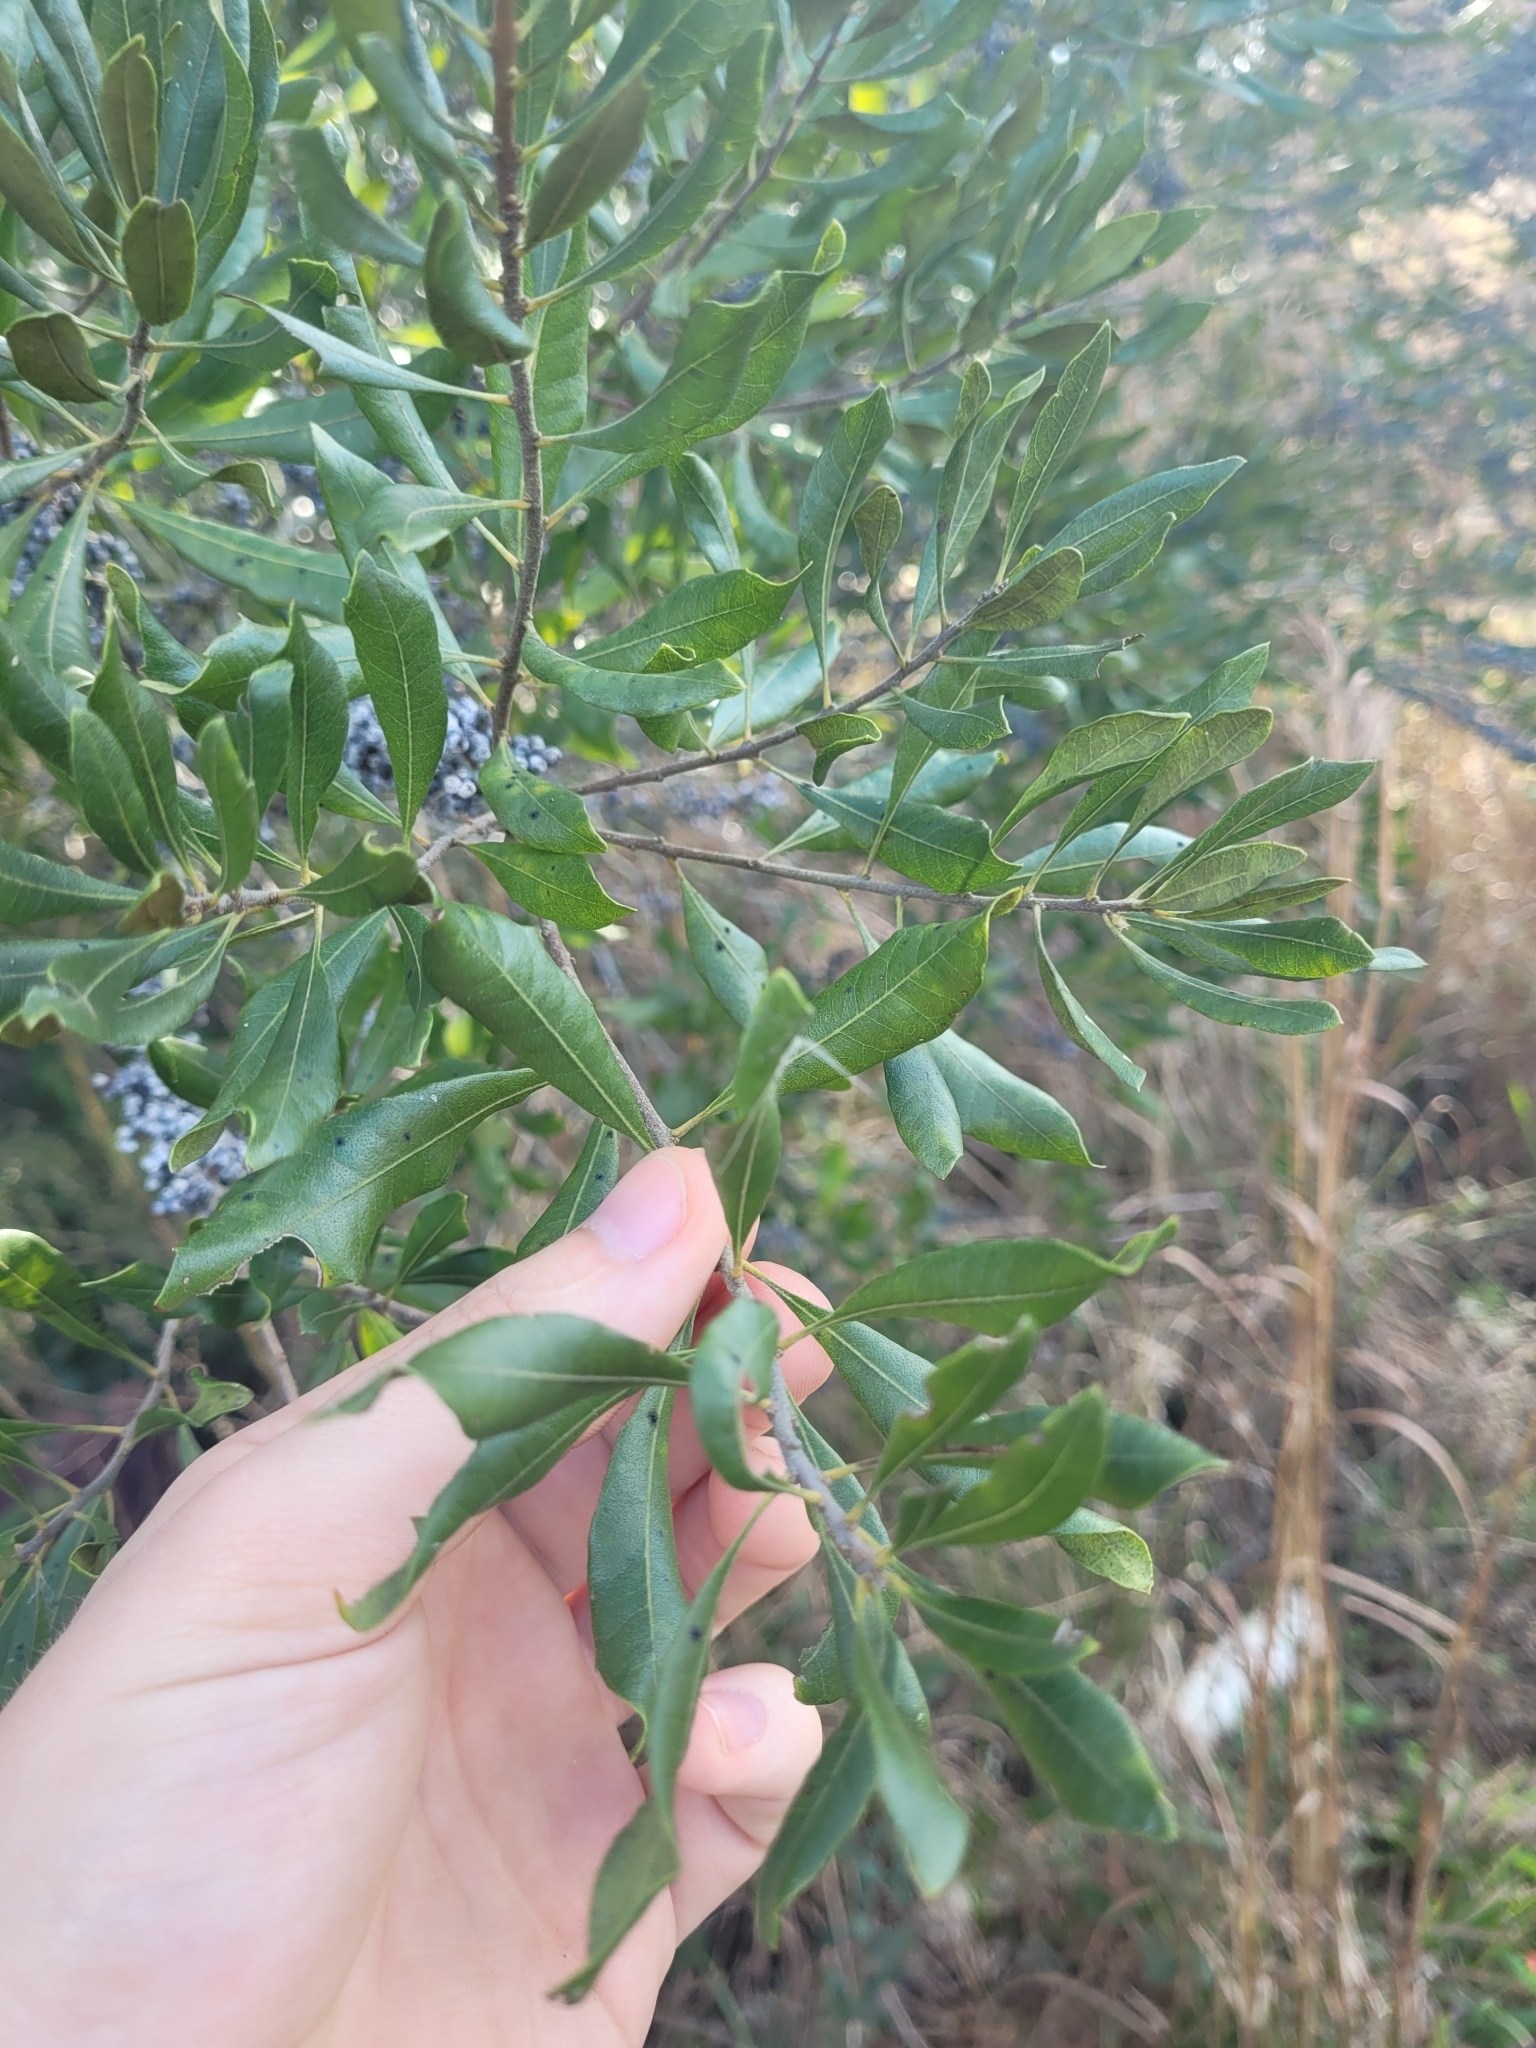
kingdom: Plantae
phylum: Tracheophyta
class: Magnoliopsida
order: Fagales
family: Myricaceae
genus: Morella
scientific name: Morella cerifera
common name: Wax myrtle
